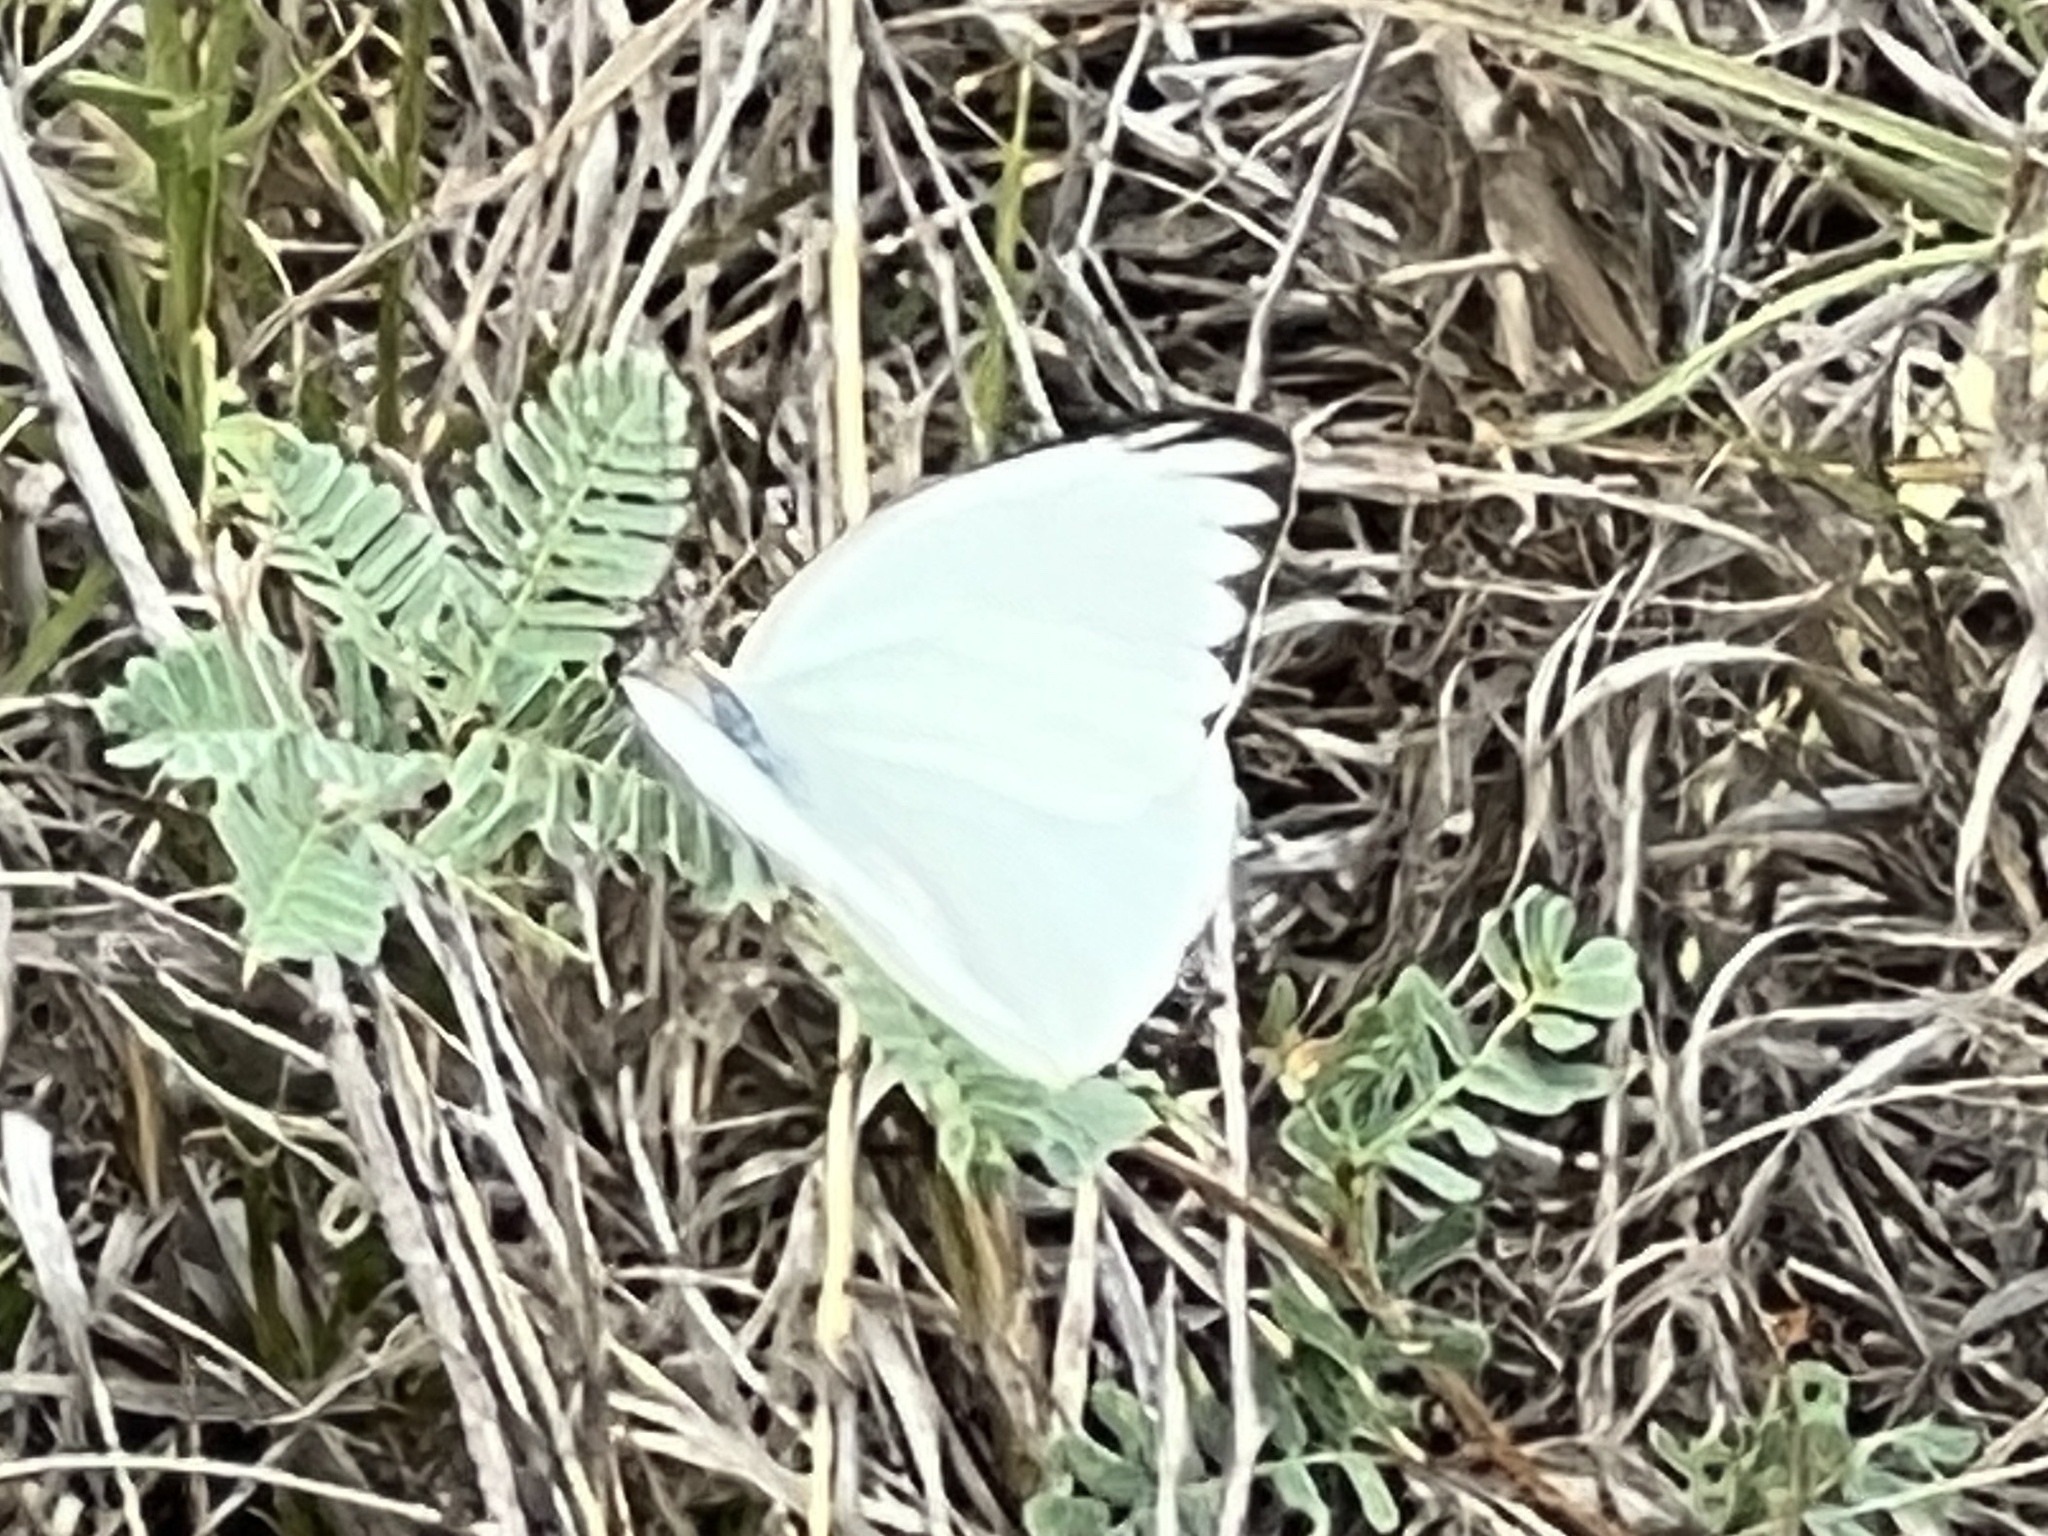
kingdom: Animalia
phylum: Arthropoda
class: Insecta
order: Lepidoptera
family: Pieridae
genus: Ascia
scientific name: Ascia monuste
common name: Great southern white
